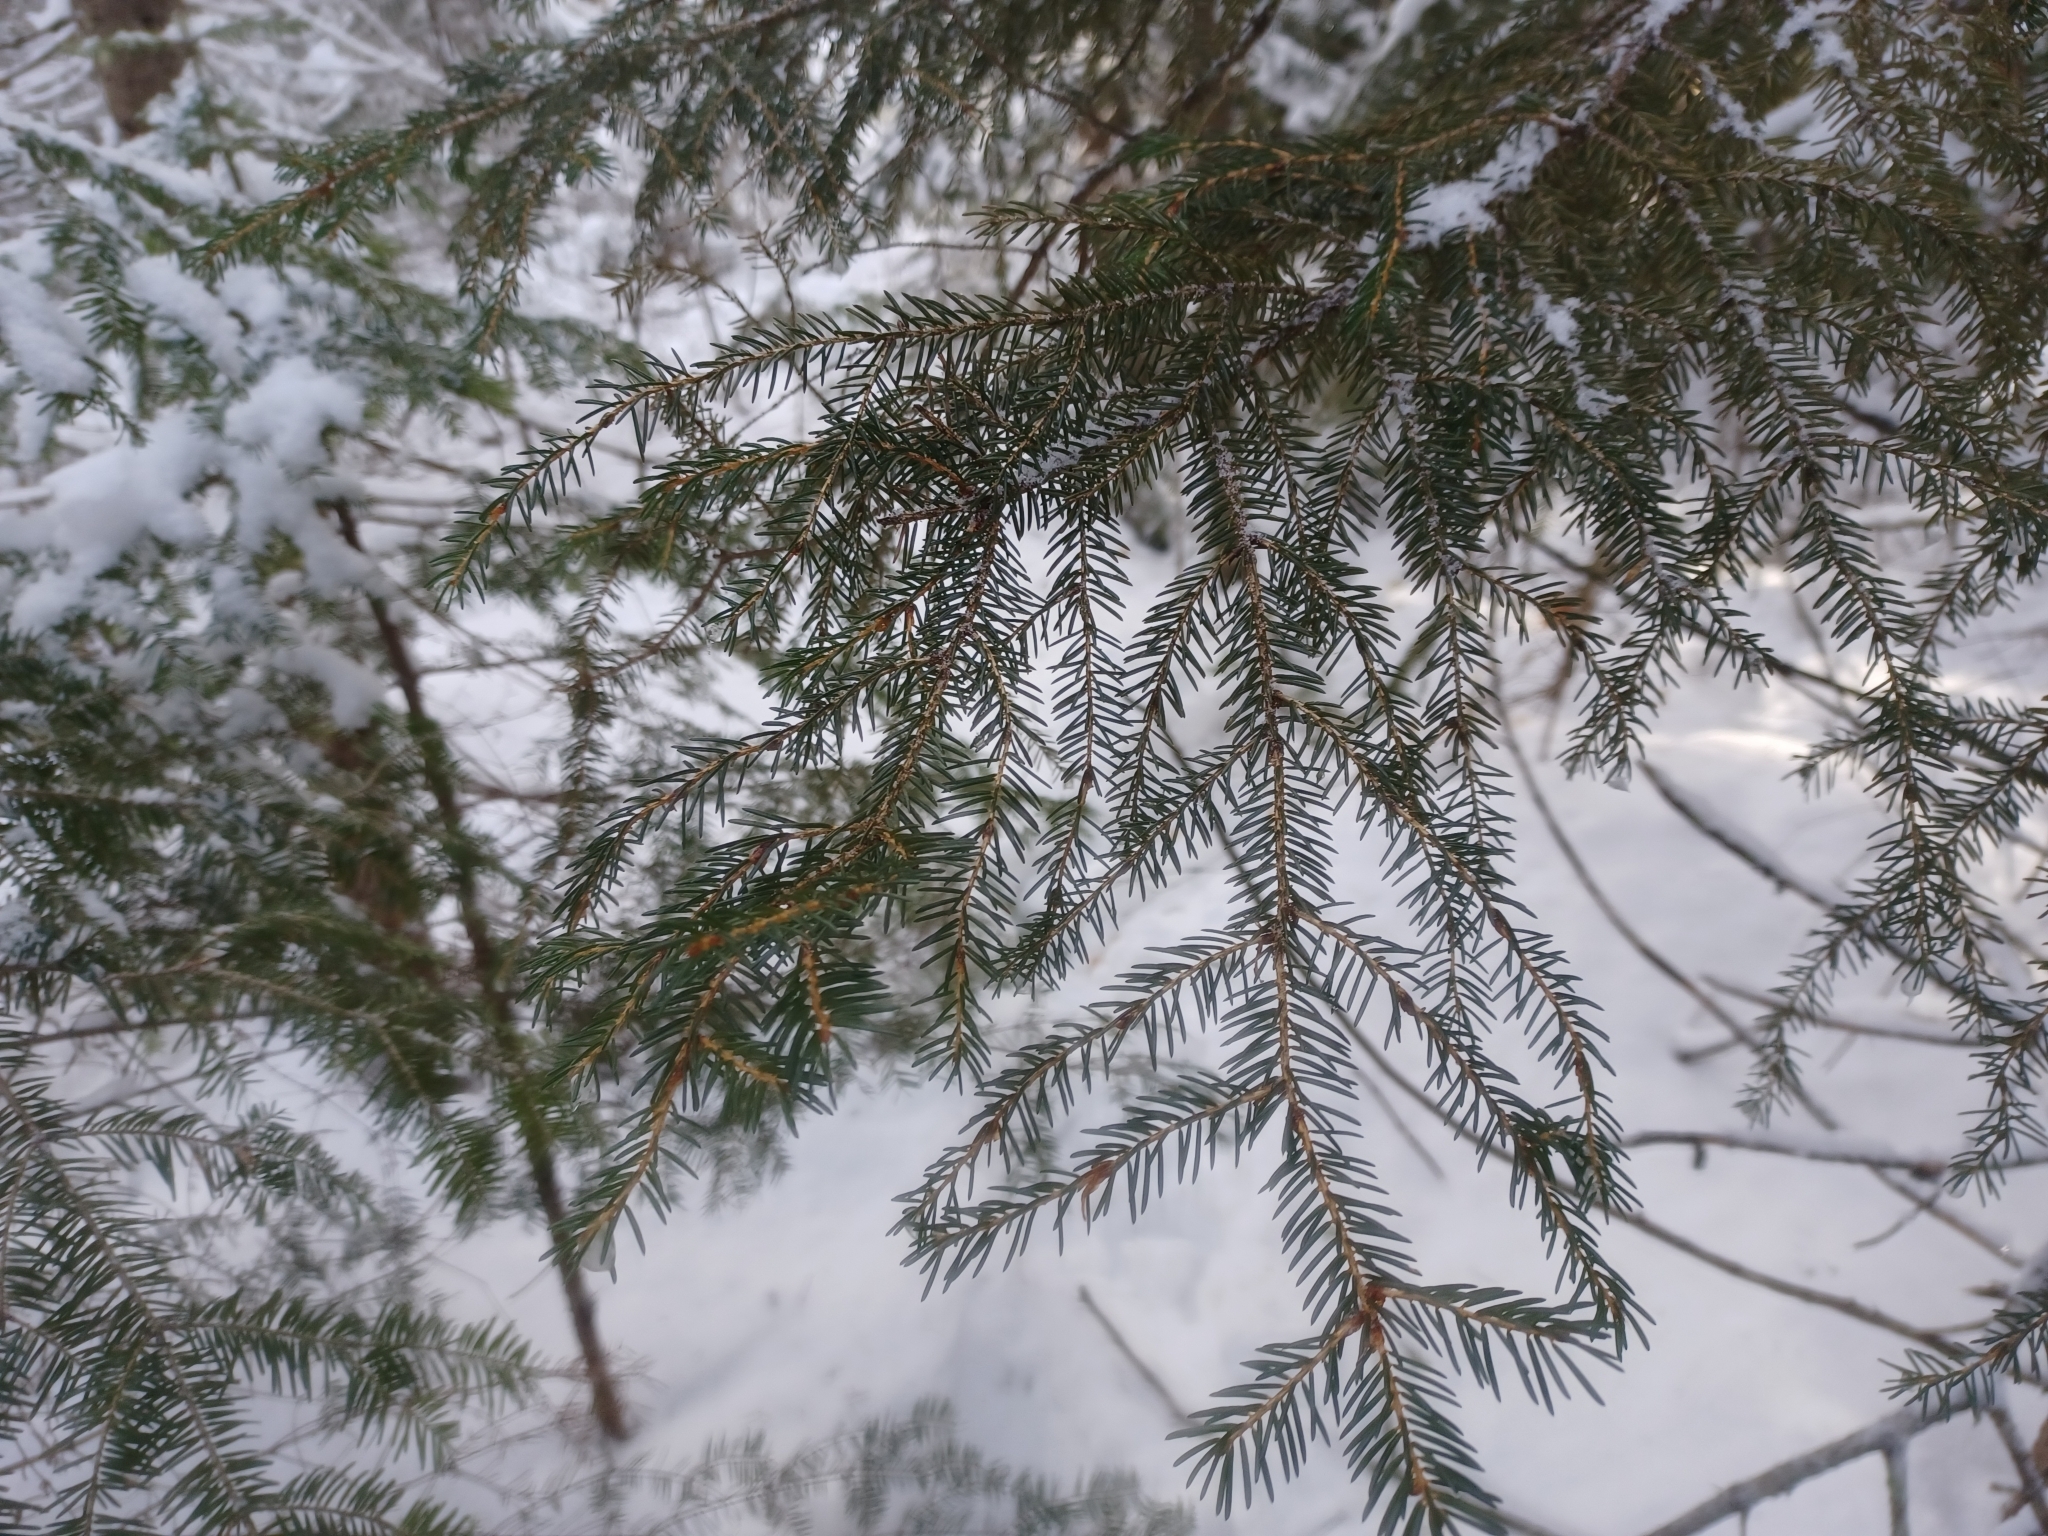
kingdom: Plantae
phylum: Tracheophyta
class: Pinopsida
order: Pinales
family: Pinaceae
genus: Picea
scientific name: Picea rubens
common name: Red spruce
